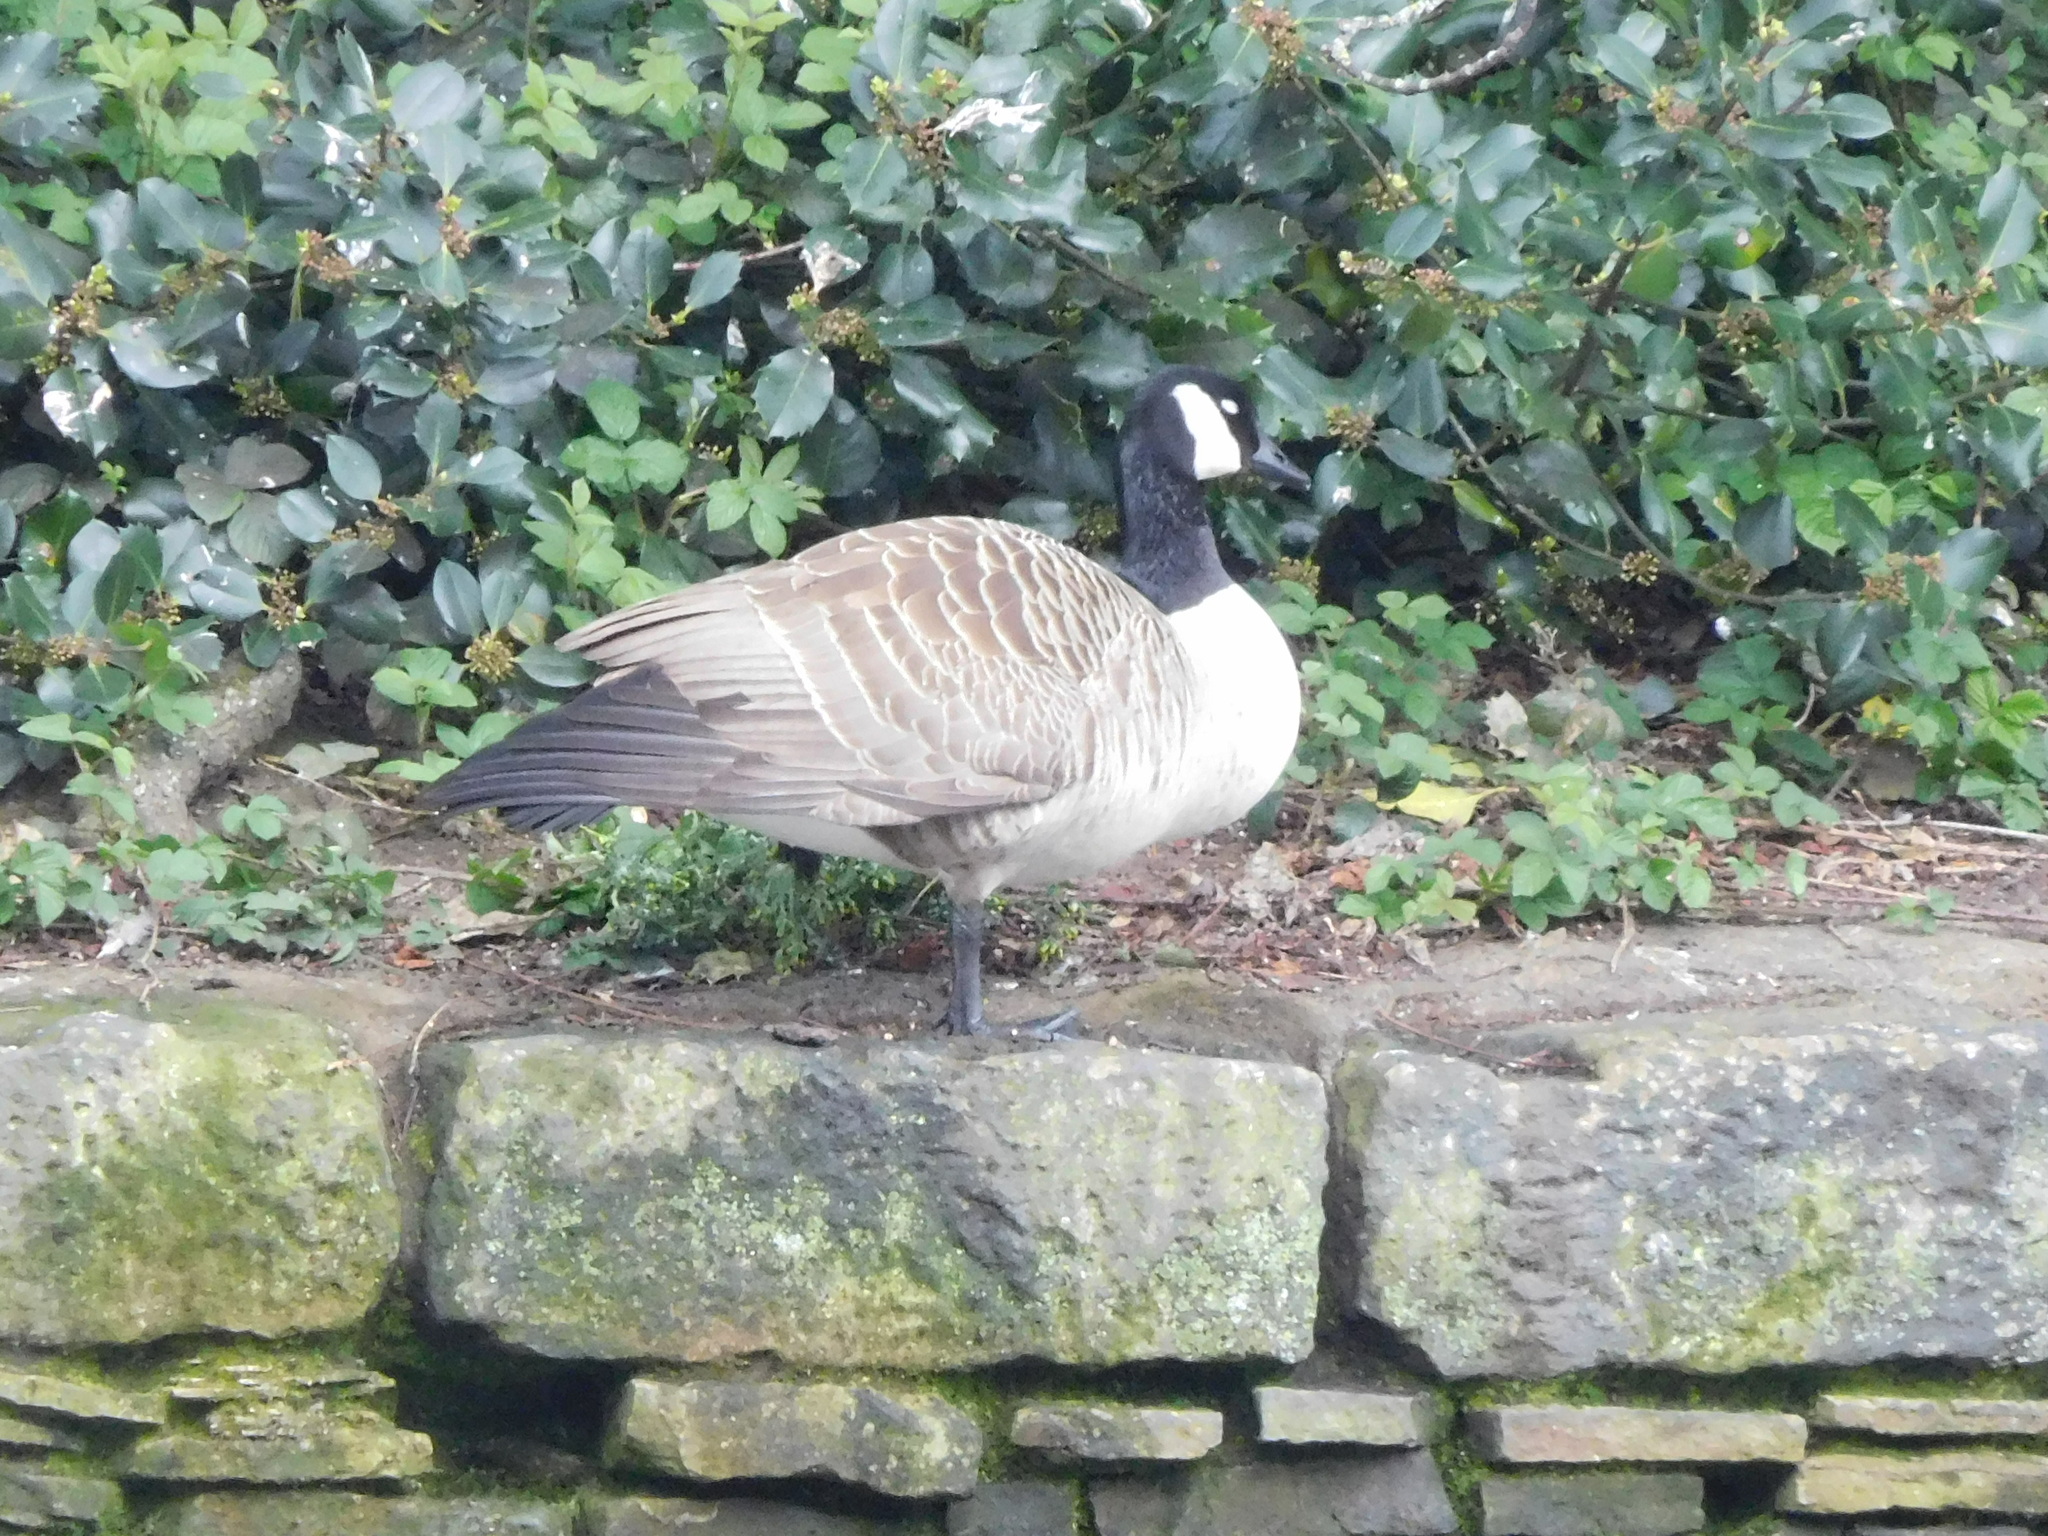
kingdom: Animalia
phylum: Chordata
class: Aves
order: Anseriformes
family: Anatidae
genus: Branta
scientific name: Branta canadensis
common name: Canada goose
